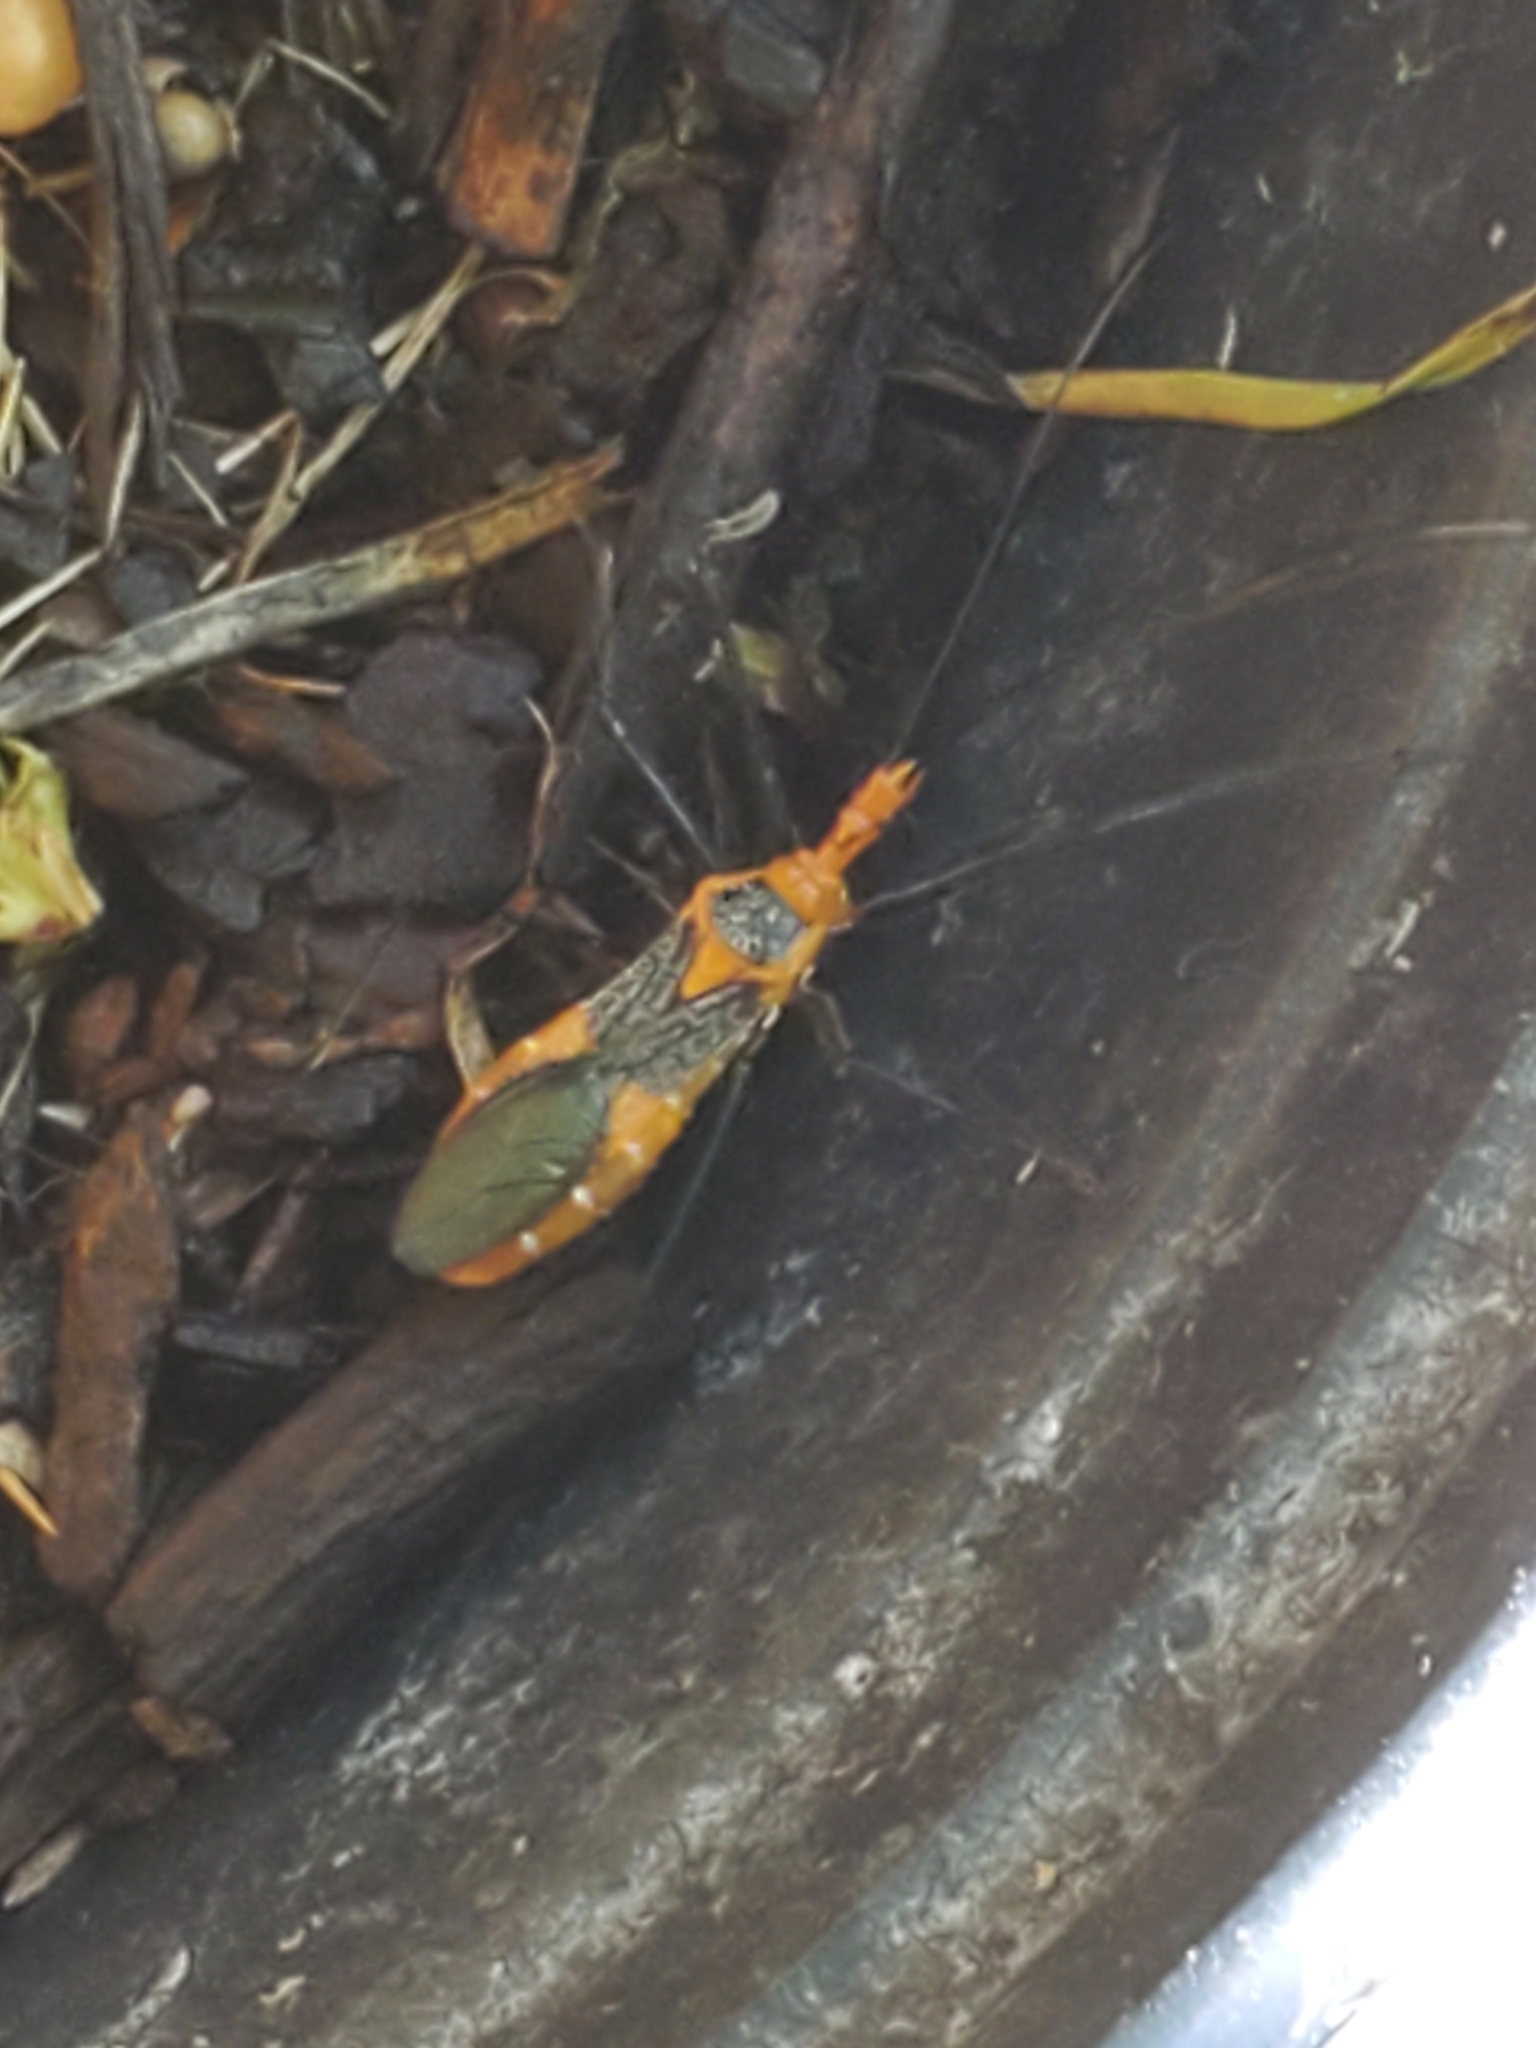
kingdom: Animalia
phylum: Arthropoda
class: Insecta
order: Hemiptera
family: Reduviidae
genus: Zelus
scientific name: Zelus longipes
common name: Milkweed assassin bug
